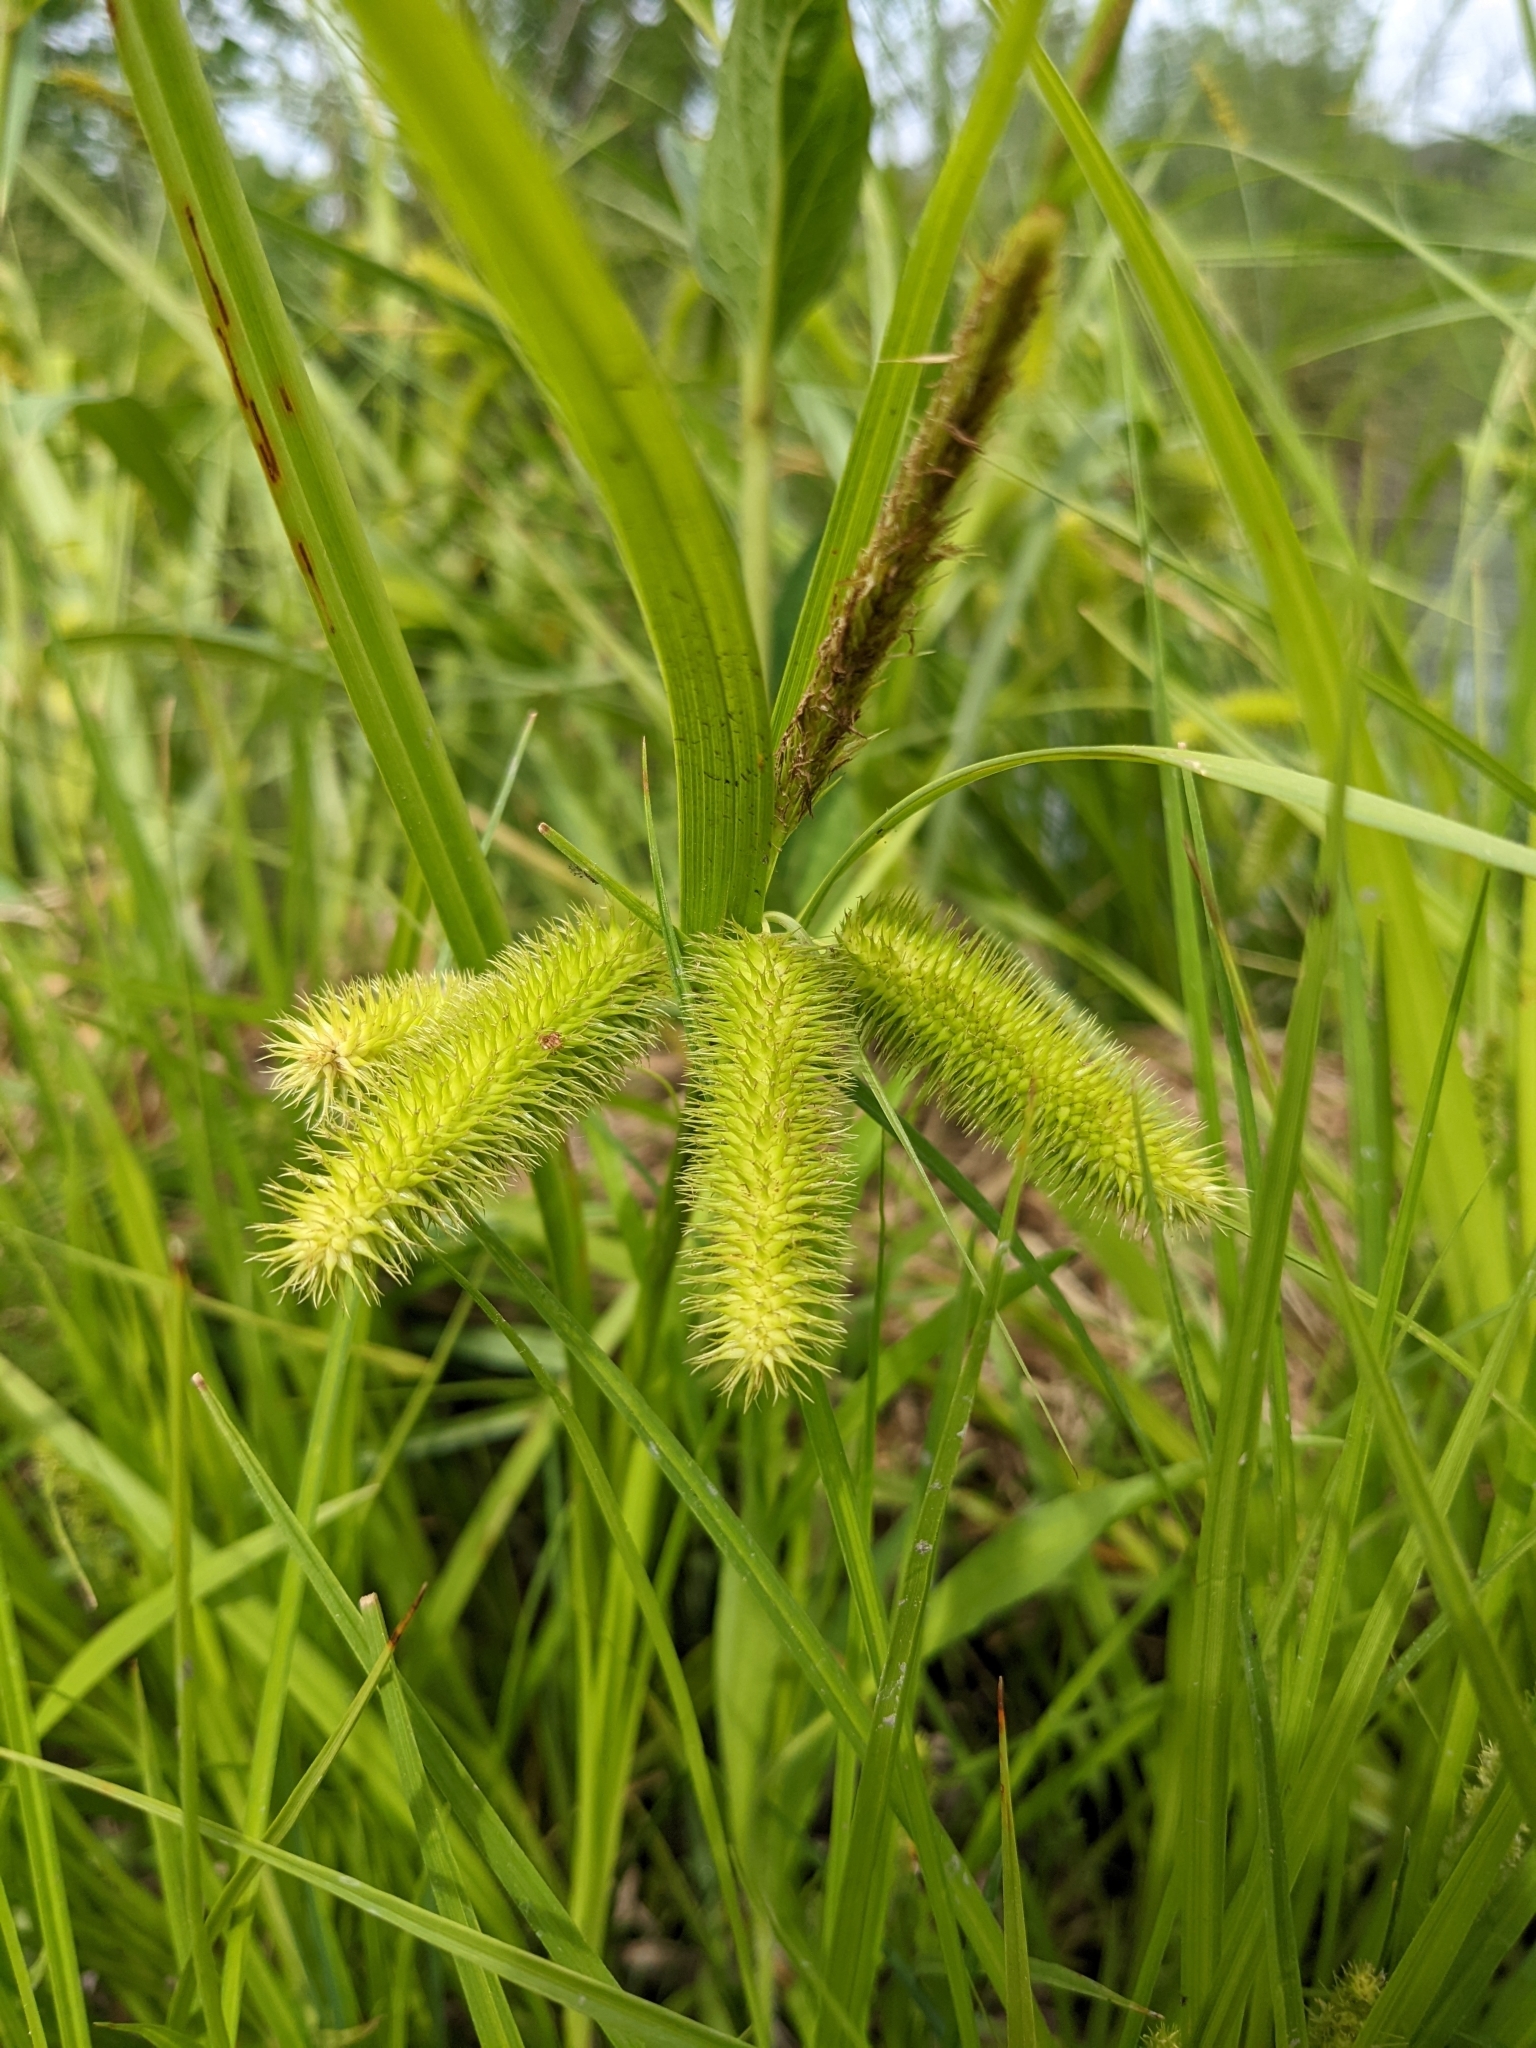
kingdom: Plantae
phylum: Tracheophyta
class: Liliopsida
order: Poales
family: Cyperaceae
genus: Carex
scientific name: Carex comosa
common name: Bristly sedge
